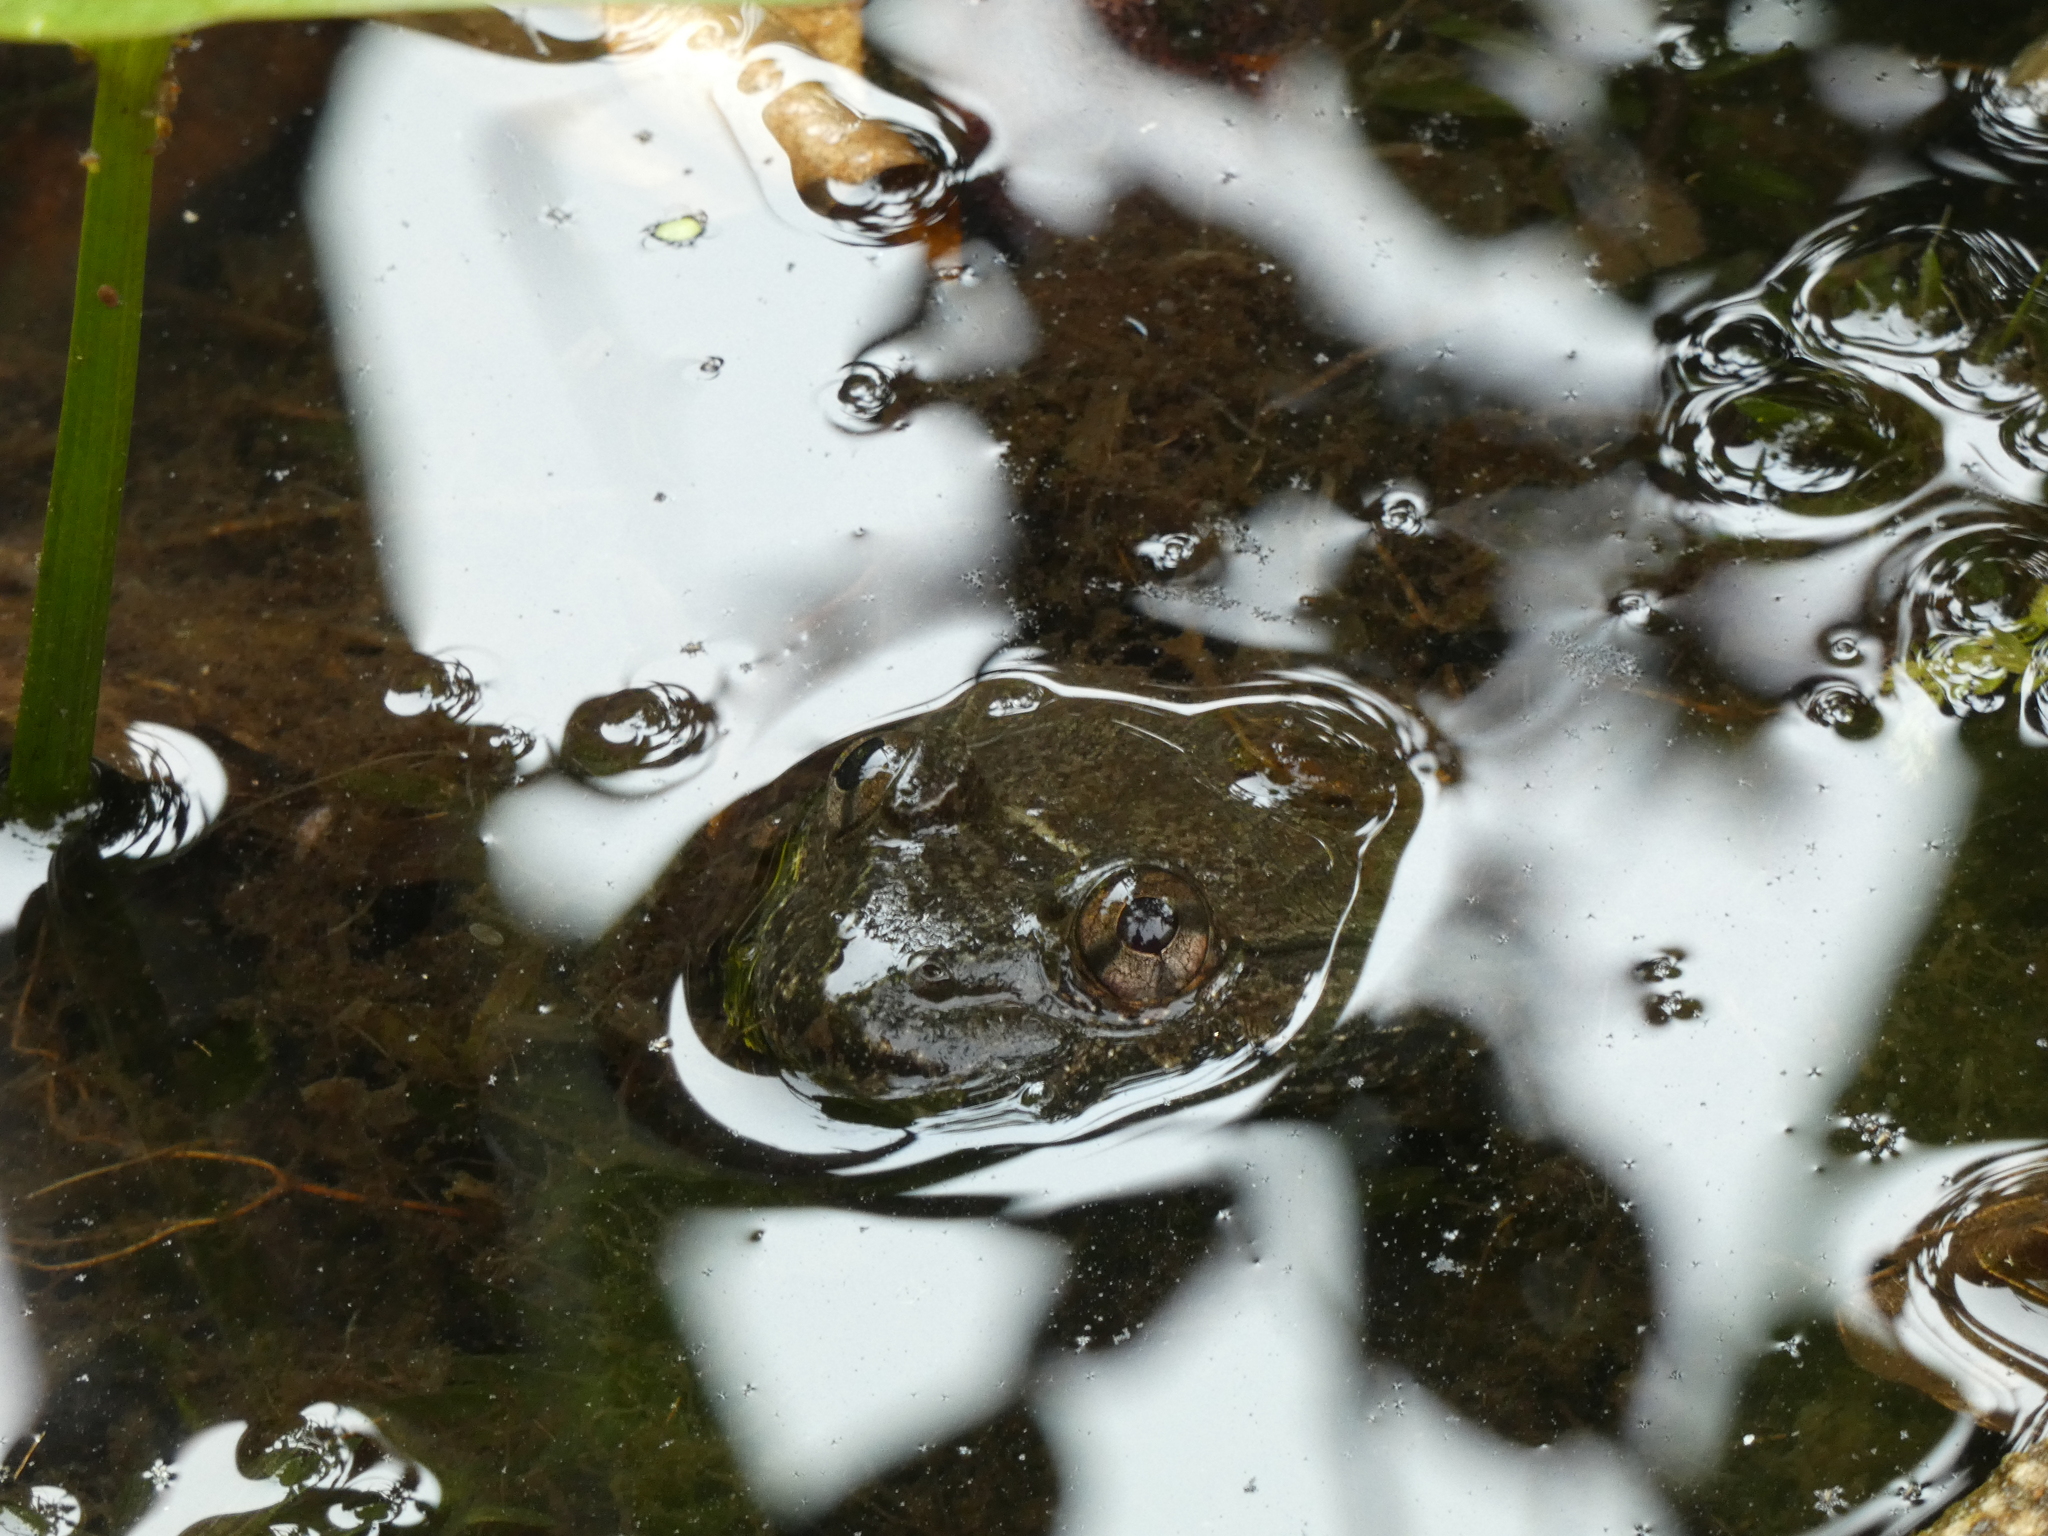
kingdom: Animalia
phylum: Chordata
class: Amphibia
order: Anura
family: Dicroglossidae
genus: Limnonectes
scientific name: Limnonectes taylori
